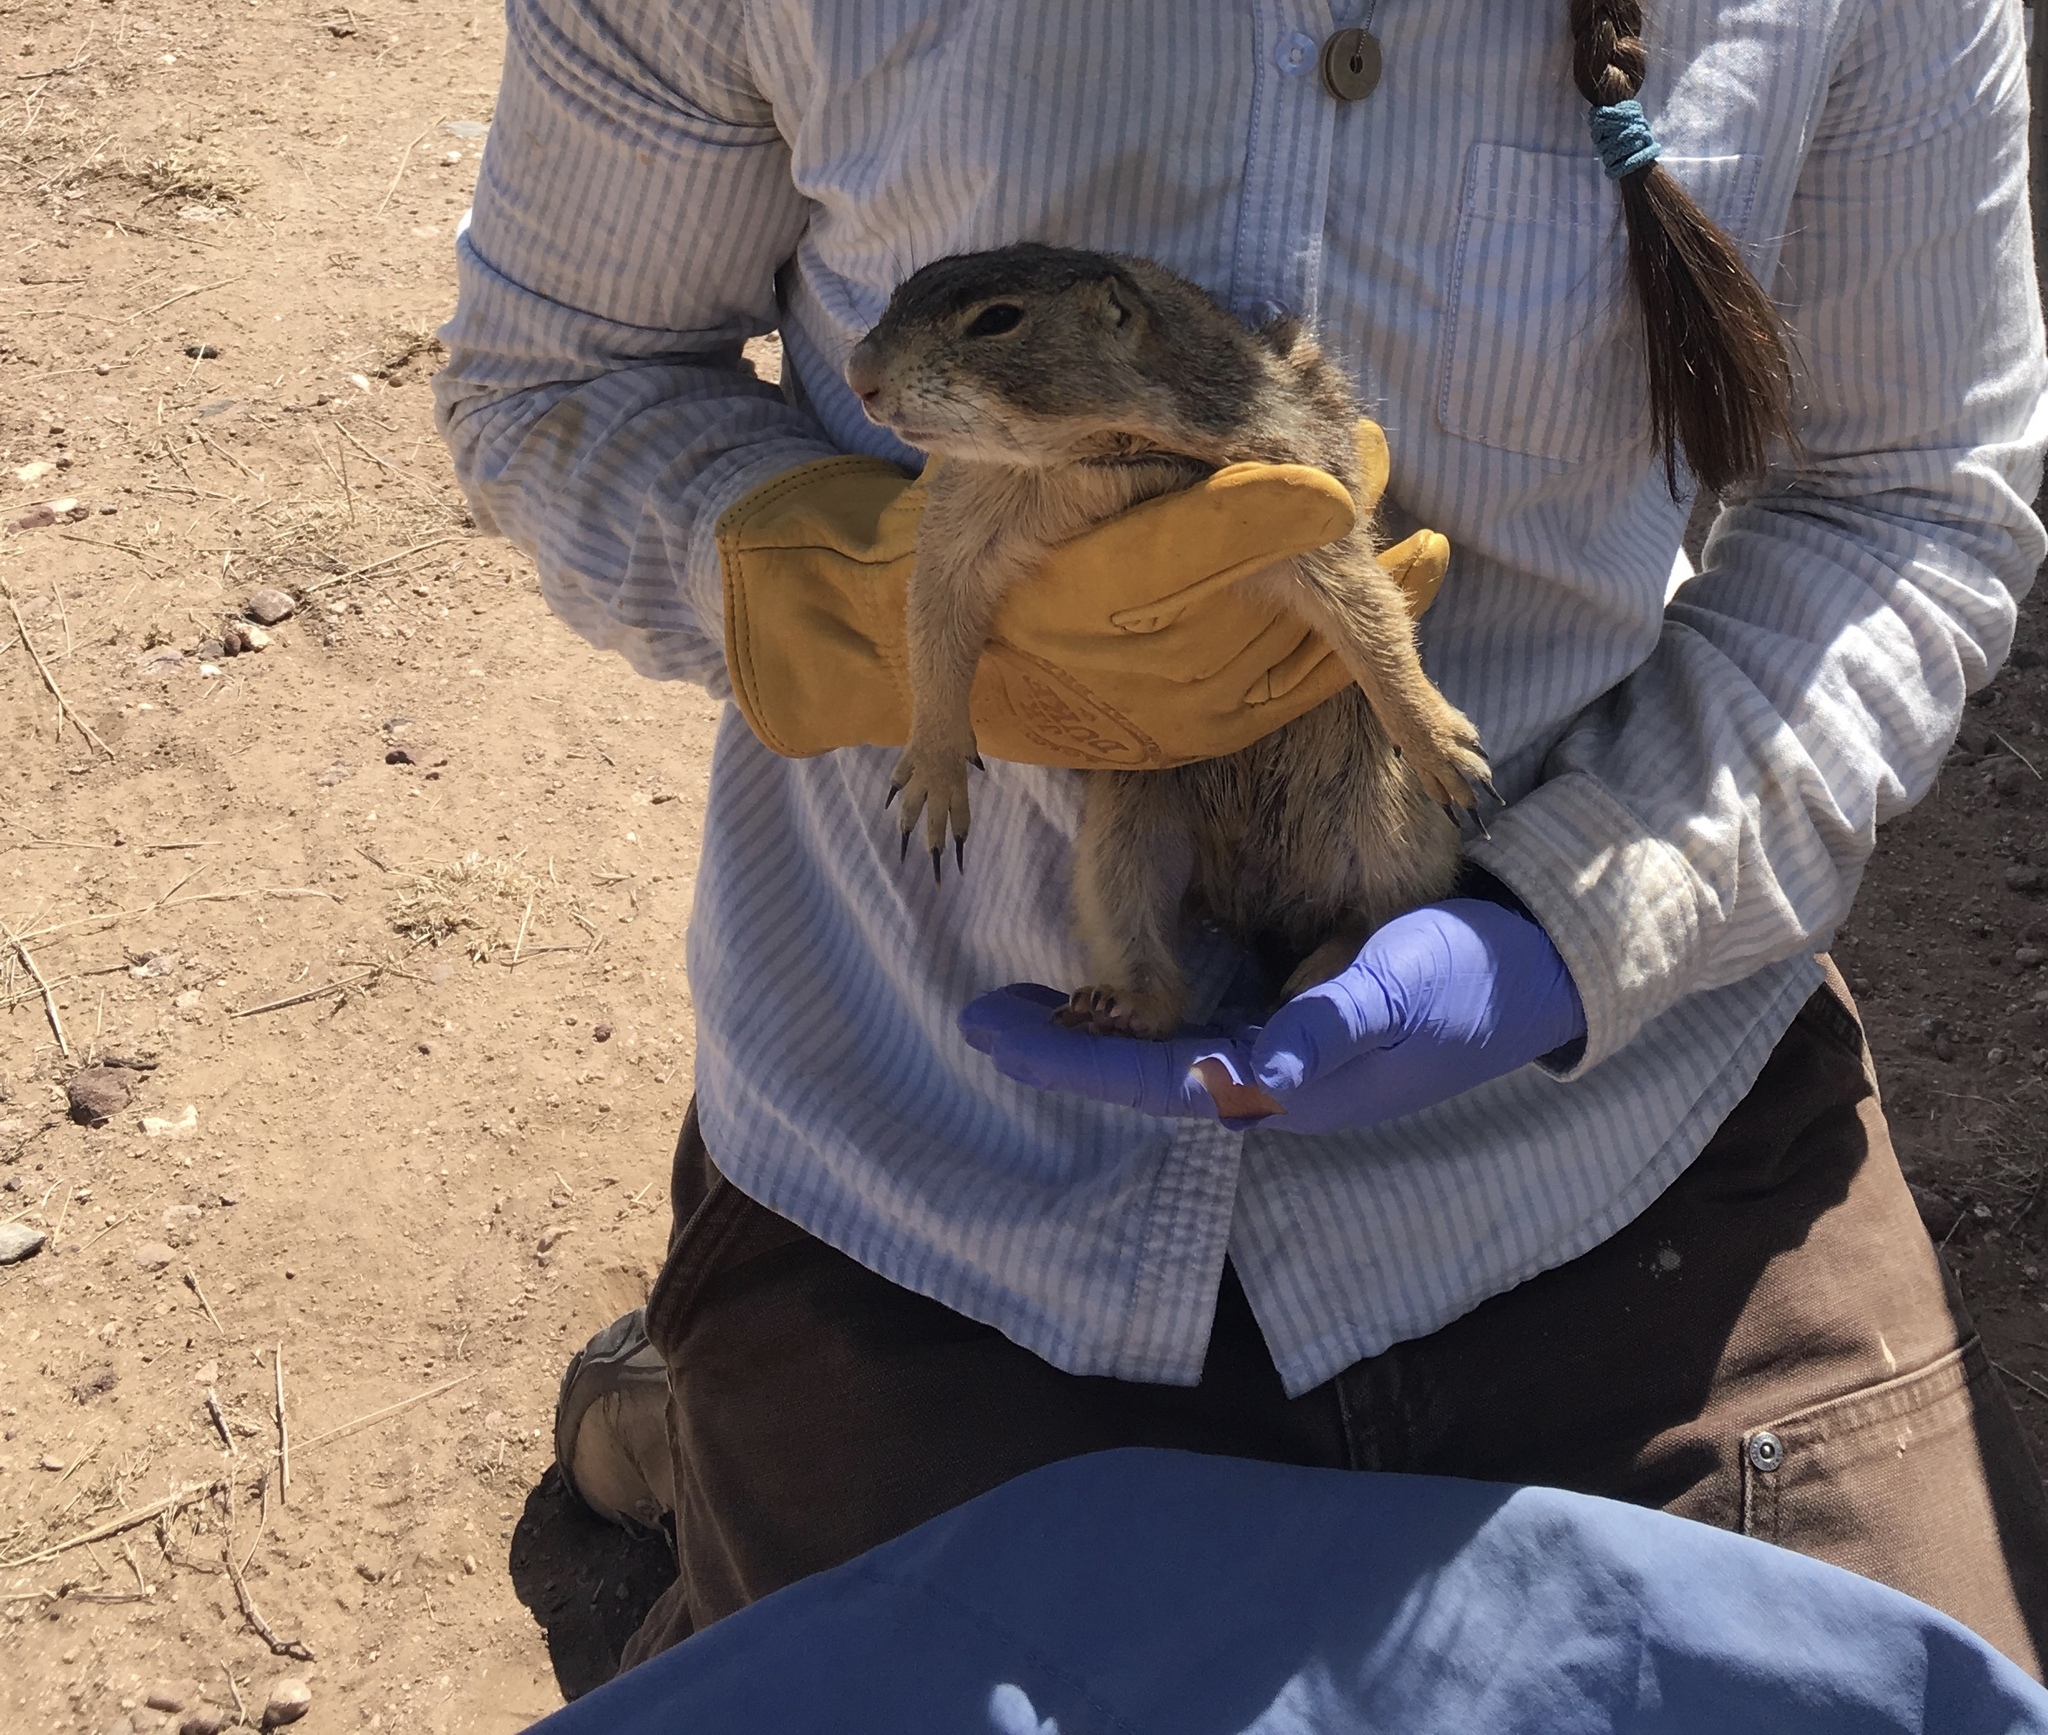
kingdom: Animalia
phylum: Chordata
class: Mammalia
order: Rodentia
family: Sciuridae
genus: Cynomys
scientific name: Cynomys gunnisoni
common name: Gunnison's prairie dog
